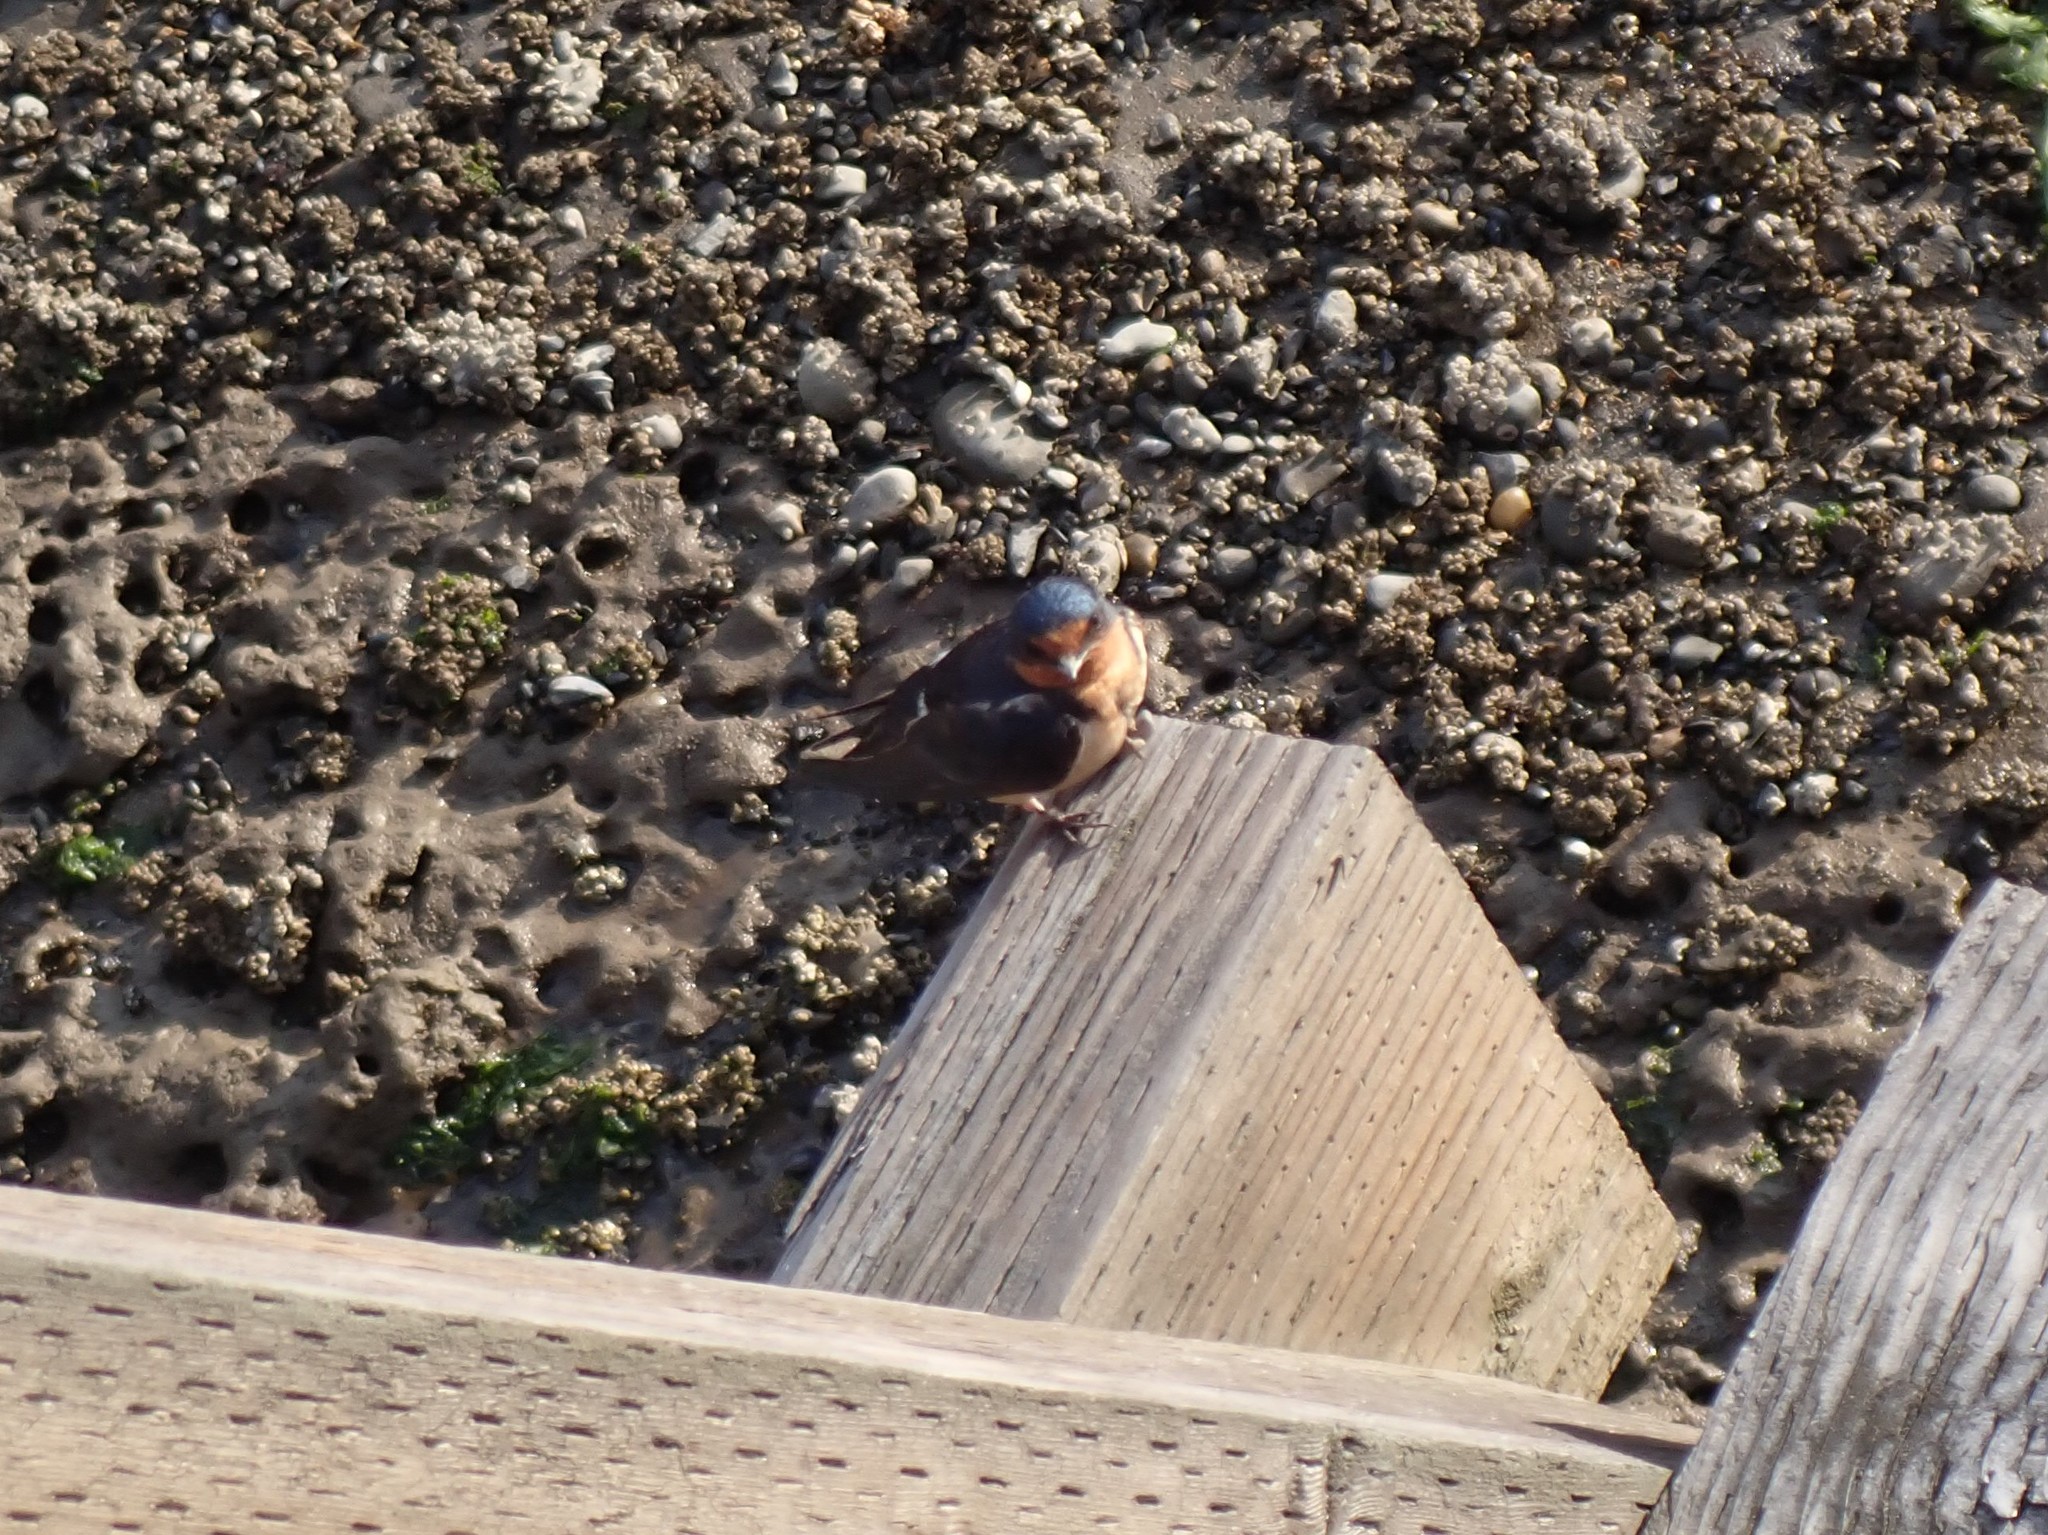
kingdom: Animalia
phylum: Chordata
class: Aves
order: Passeriformes
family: Hirundinidae
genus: Hirundo
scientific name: Hirundo rustica
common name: Barn swallow
